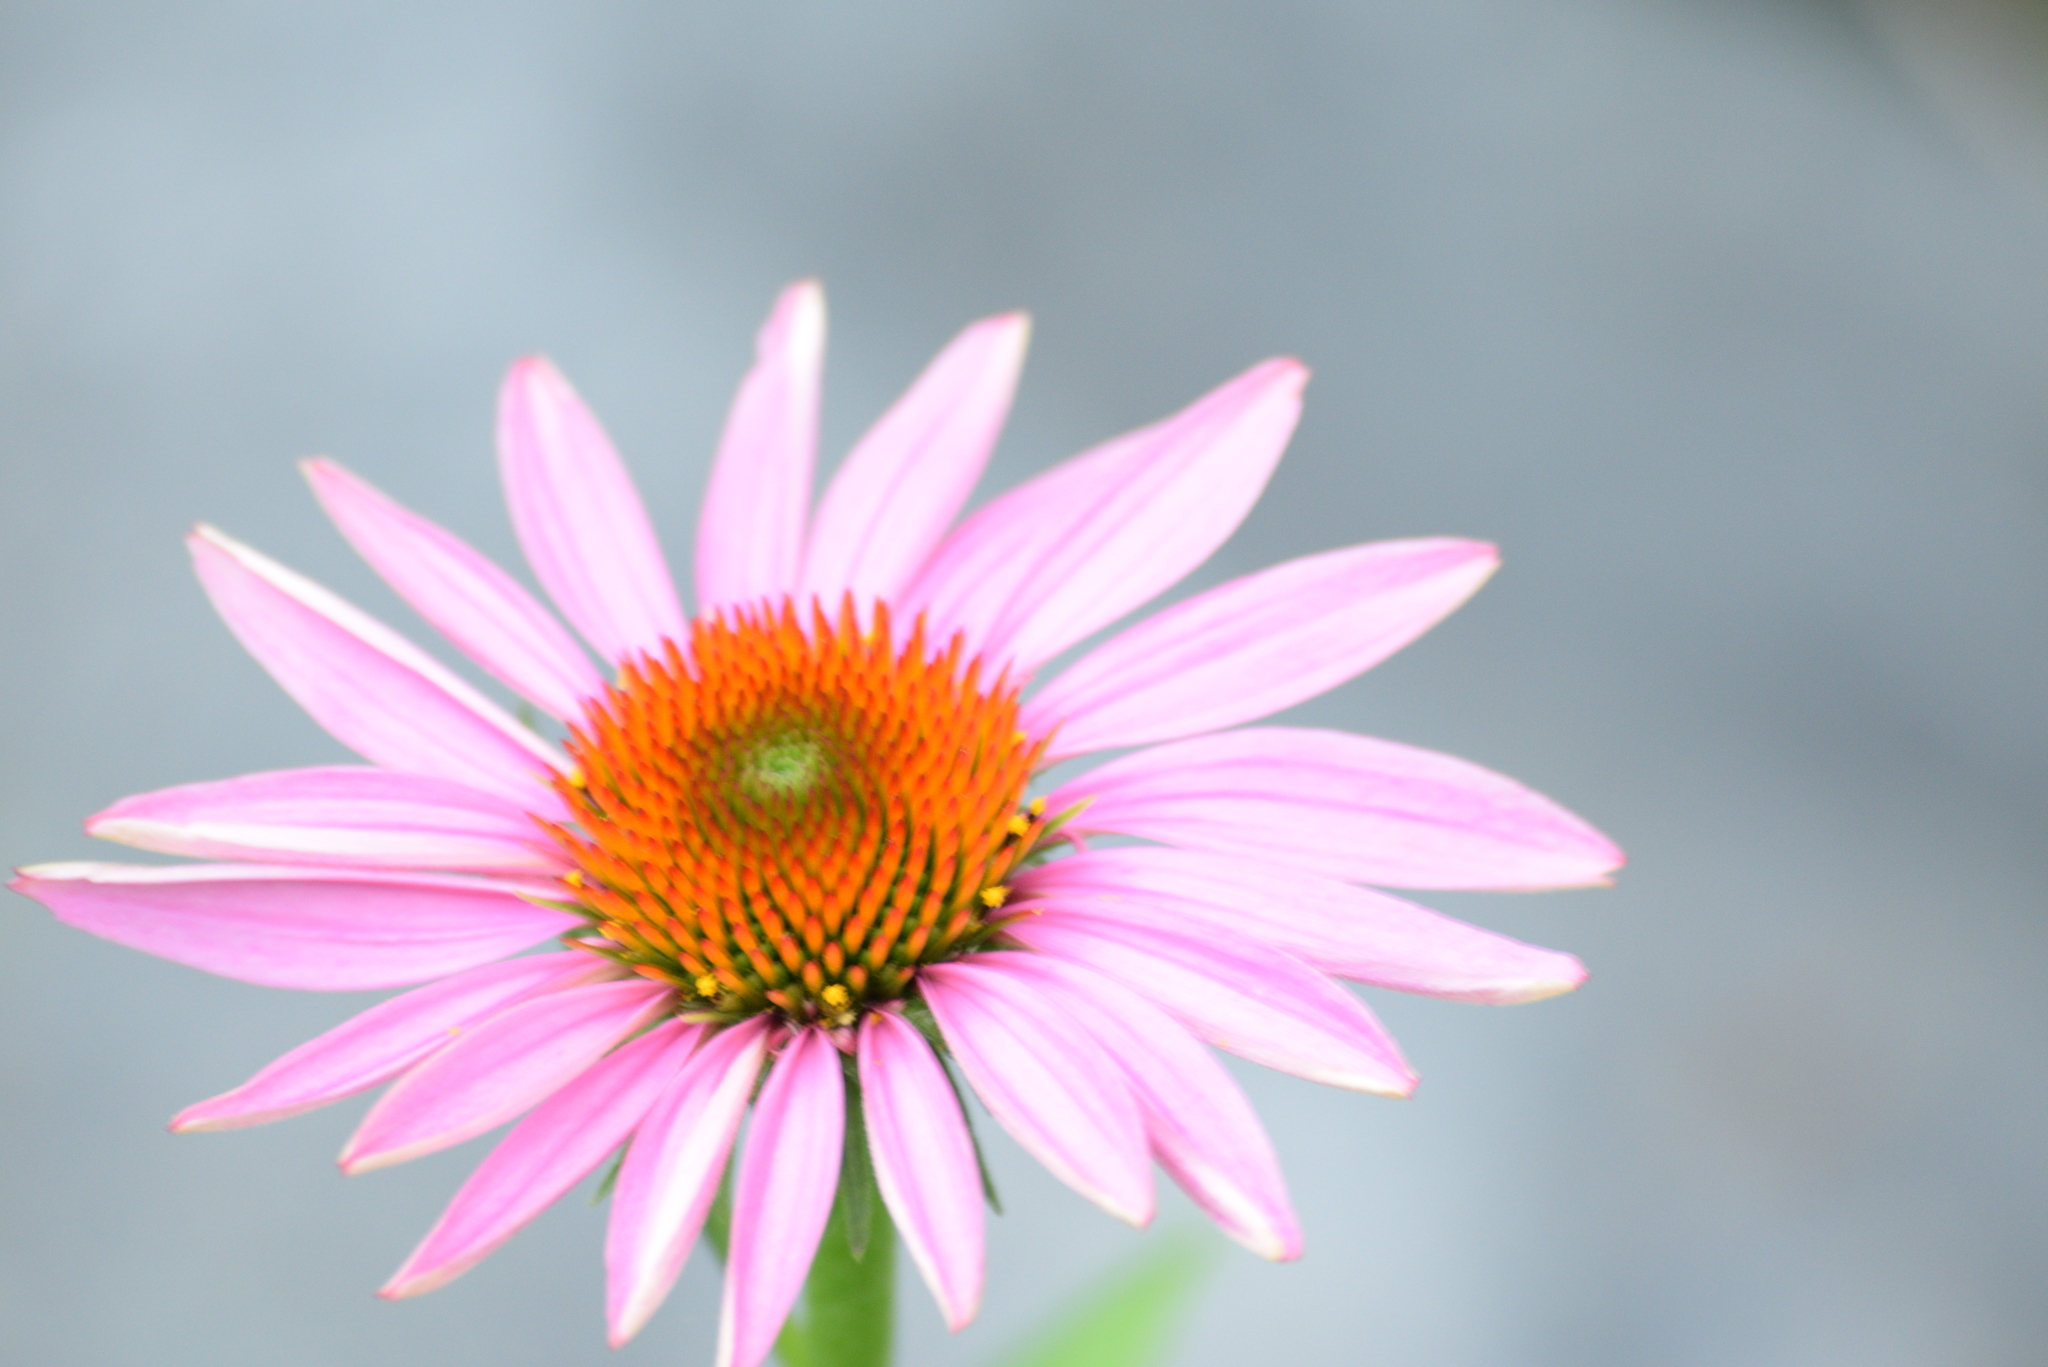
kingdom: Plantae
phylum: Tracheophyta
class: Magnoliopsida
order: Asterales
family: Asteraceae
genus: Echinacea
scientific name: Echinacea purpurea
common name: Broad-leaved purple coneflower
